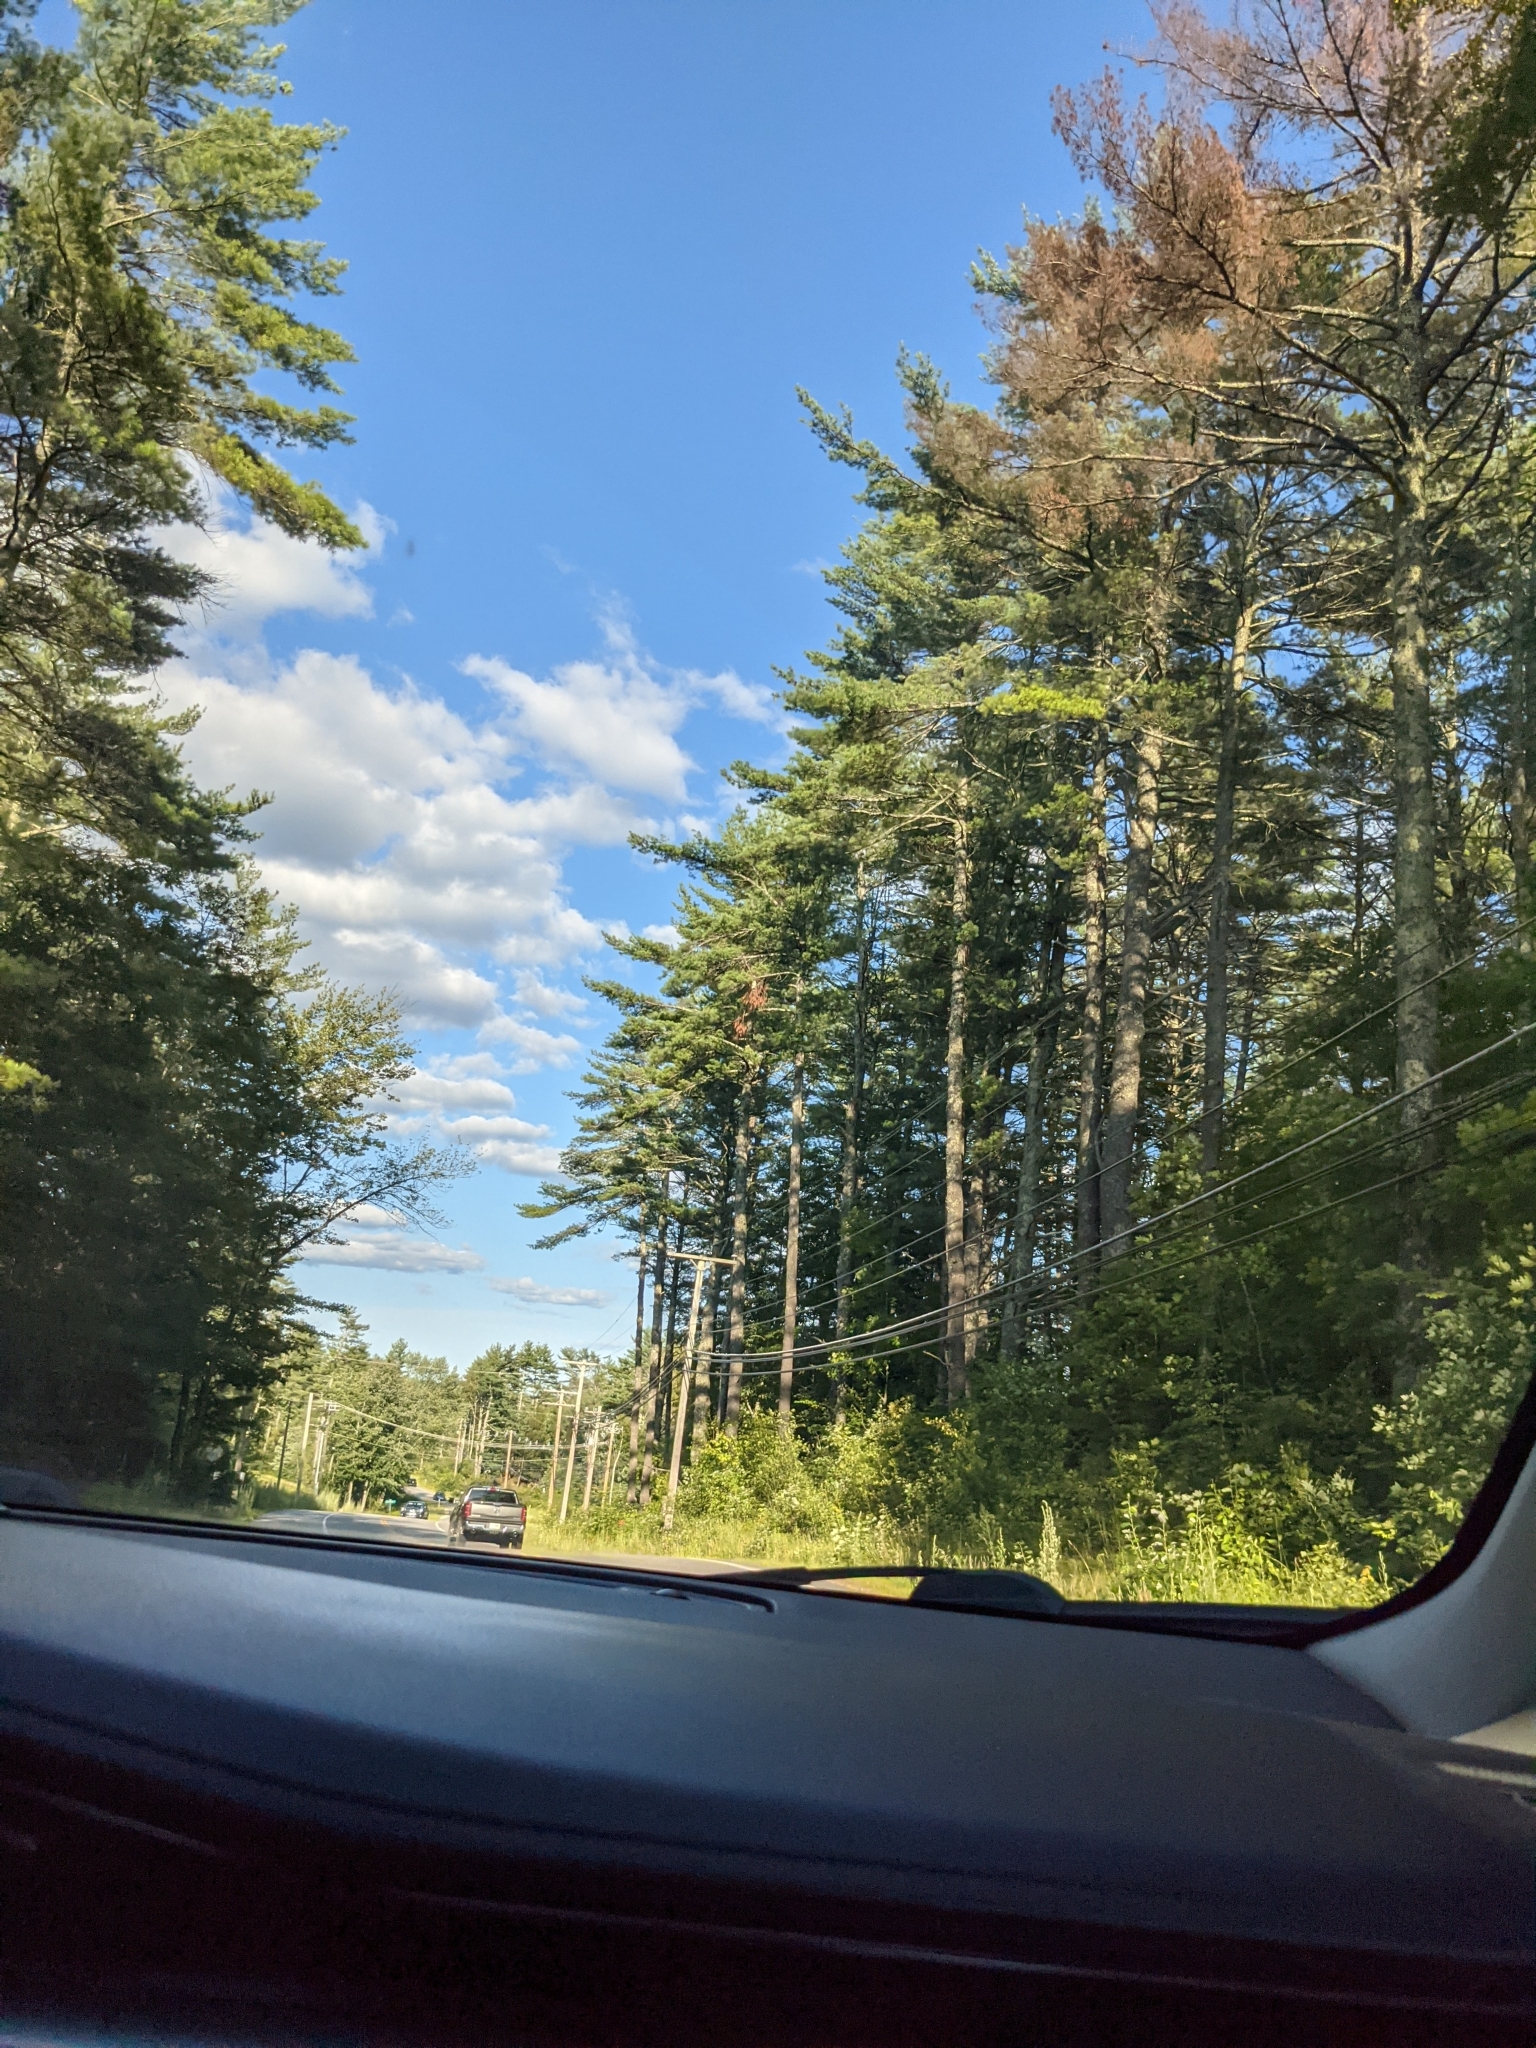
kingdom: Plantae
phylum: Tracheophyta
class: Pinopsida
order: Pinales
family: Pinaceae
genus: Pinus
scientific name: Pinus strobus
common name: Weymouth pine
